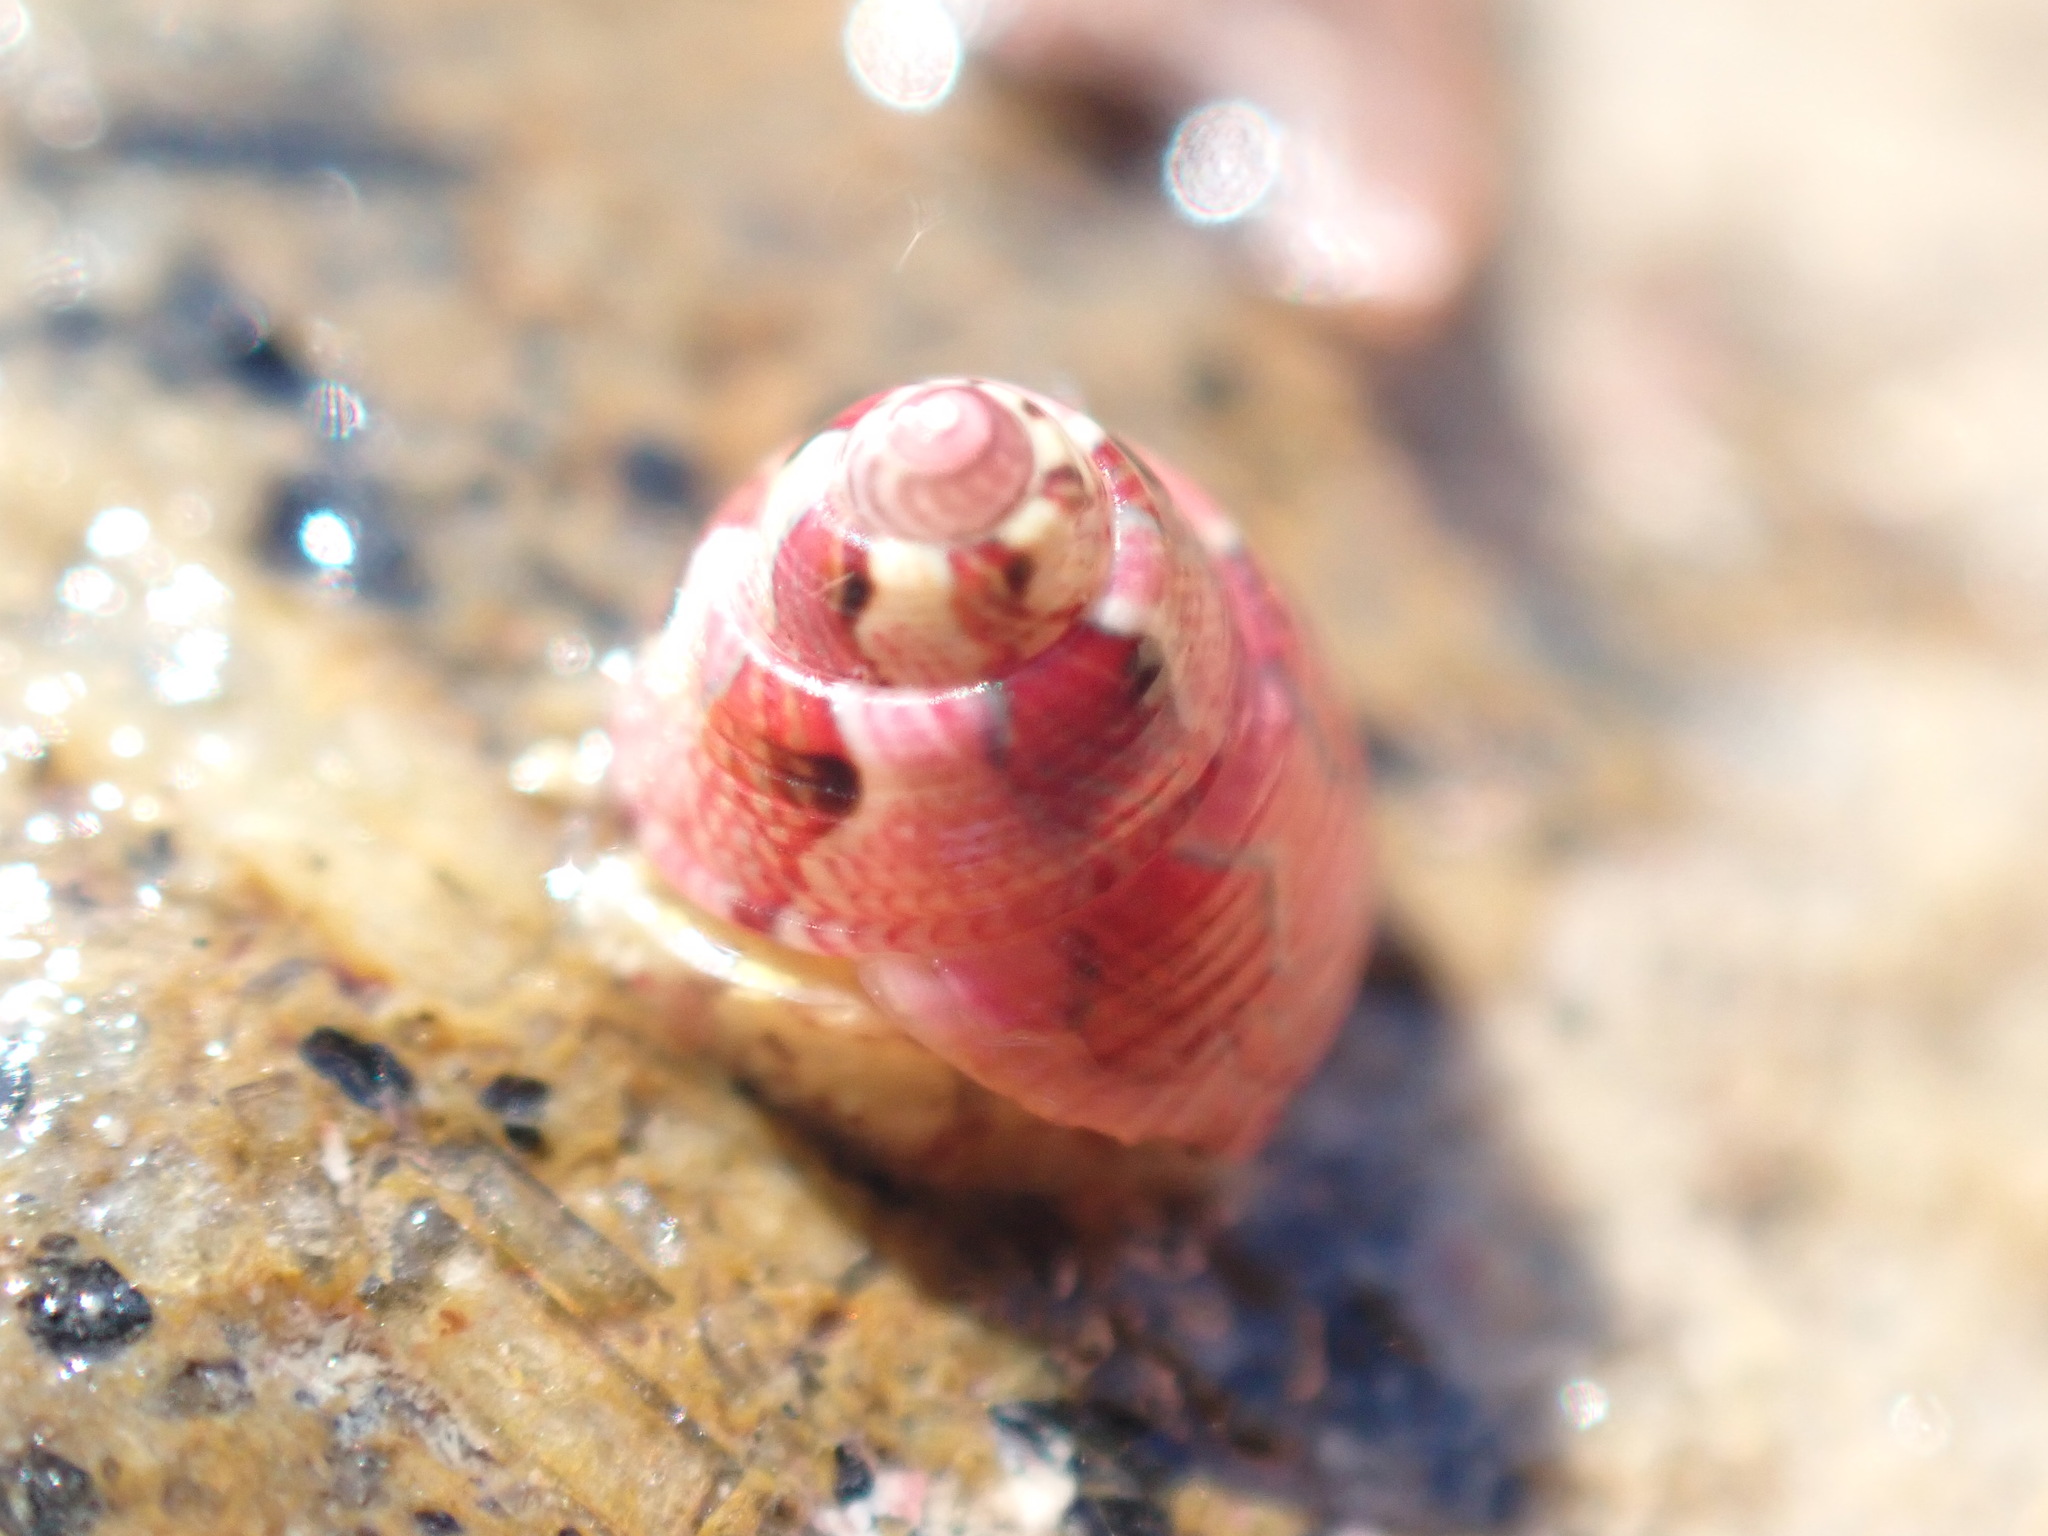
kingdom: Animalia
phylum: Mollusca
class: Gastropoda
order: Trochida
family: Trochidae
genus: Micrelenchus
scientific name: Micrelenchus sanguineus
